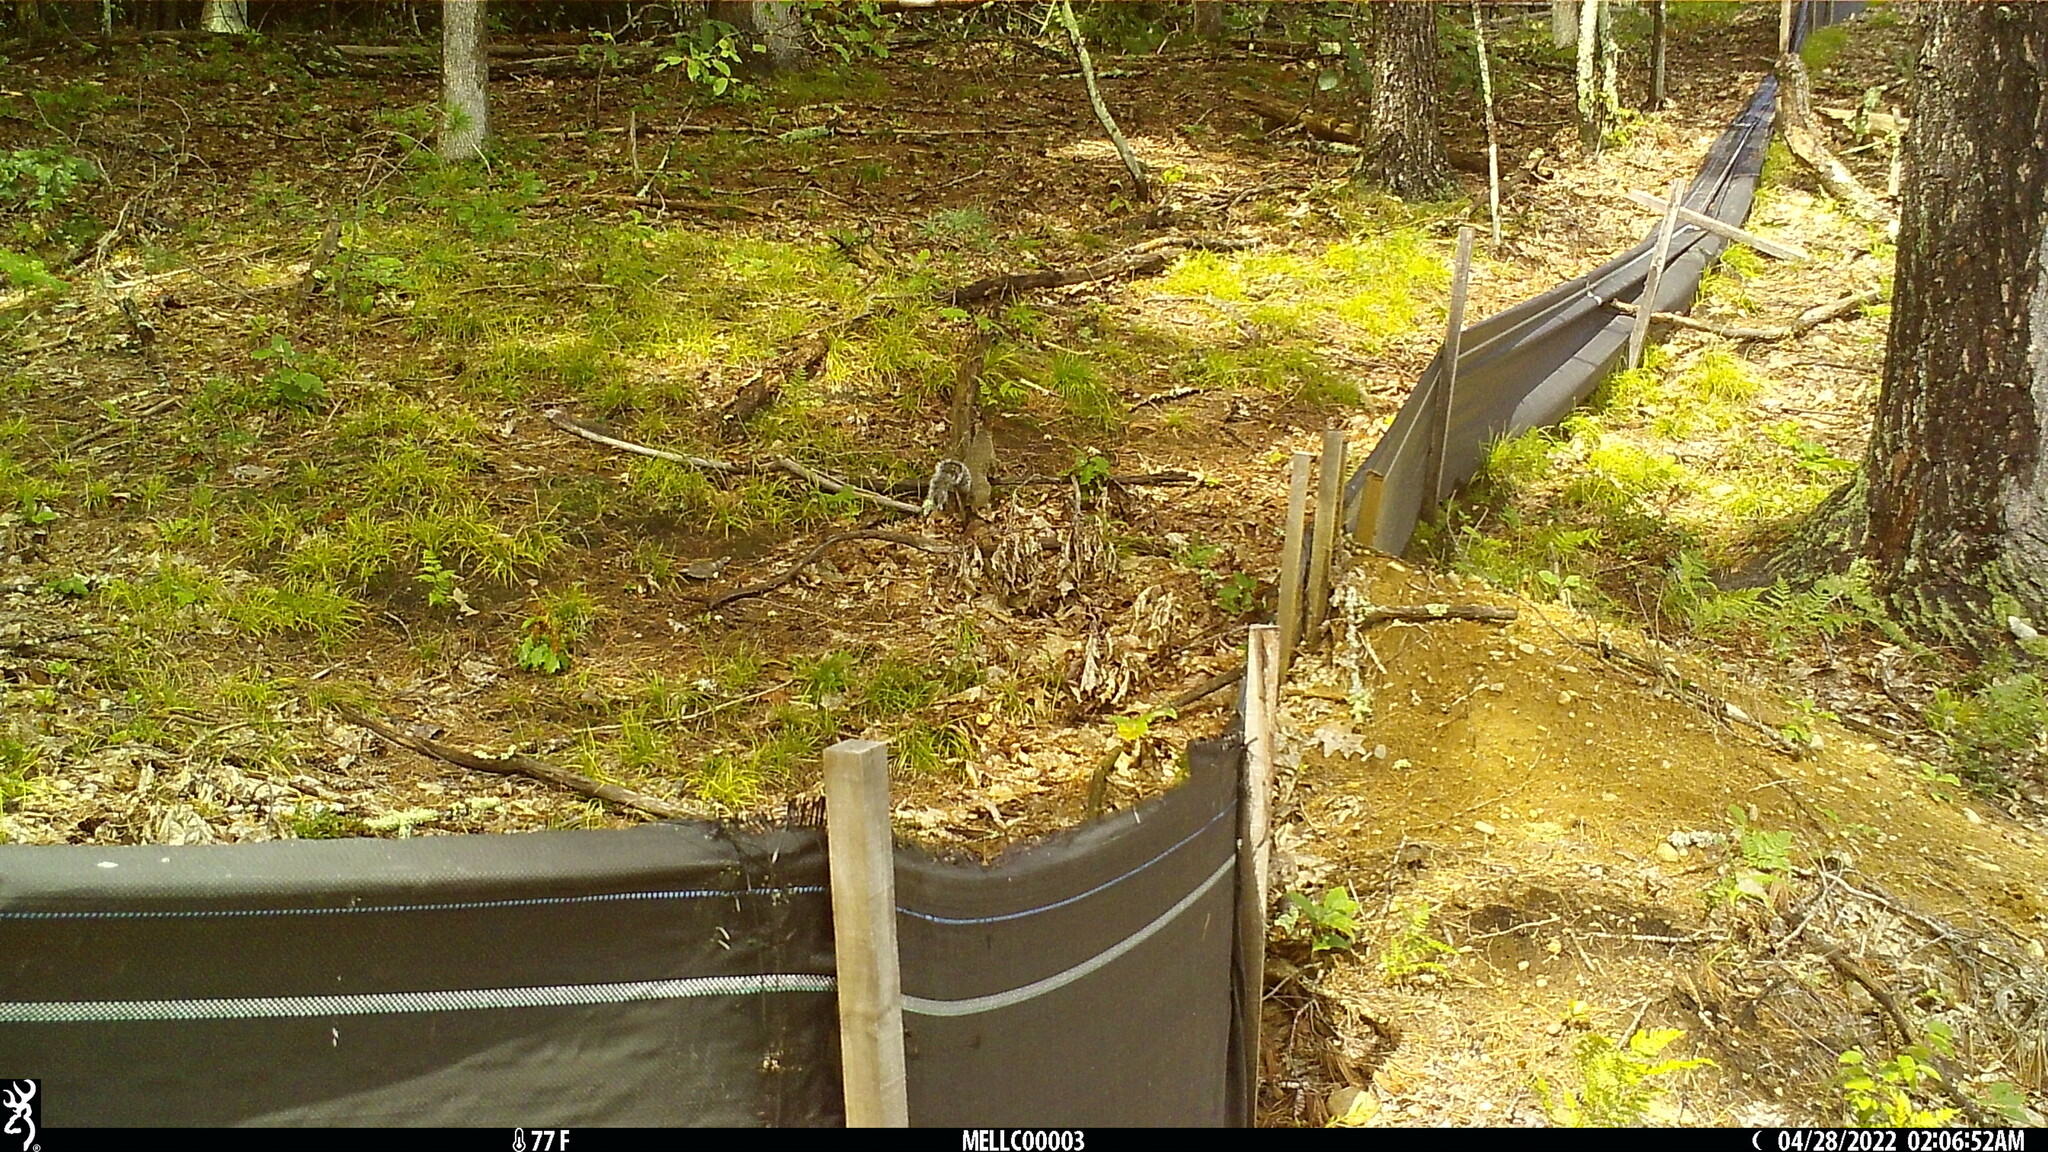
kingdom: Animalia
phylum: Chordata
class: Mammalia
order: Rodentia
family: Sciuridae
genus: Sciurus
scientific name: Sciurus carolinensis
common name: Eastern gray squirrel
